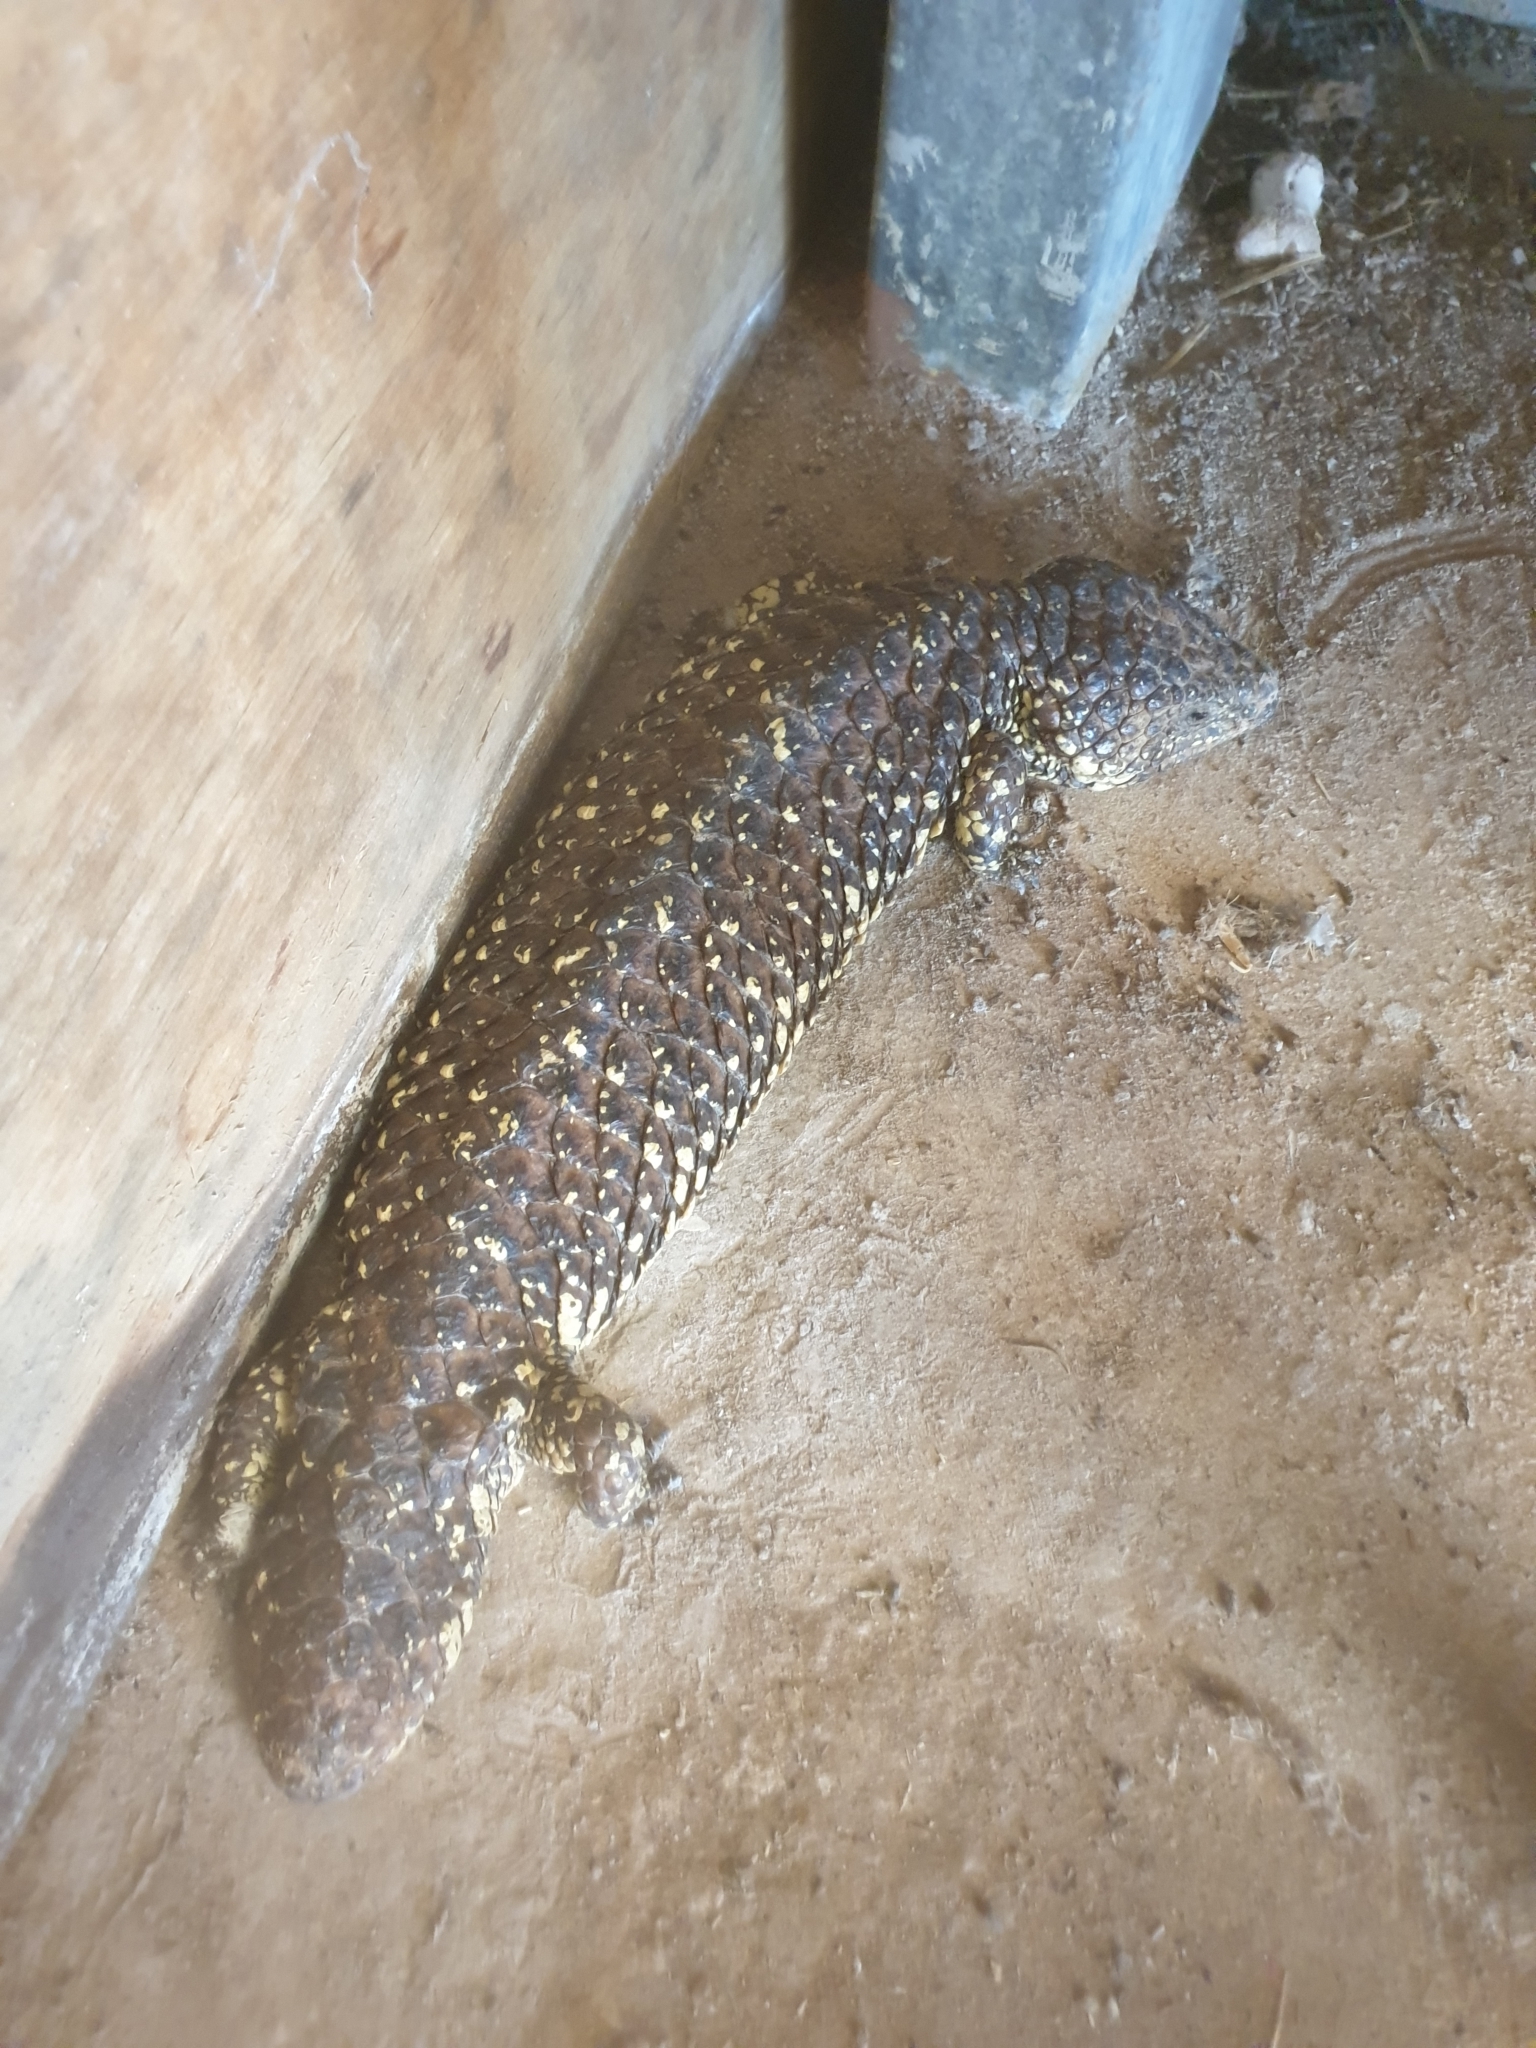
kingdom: Animalia
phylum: Chordata
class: Squamata
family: Scincidae
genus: Tiliqua
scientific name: Tiliqua rugosa
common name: Pinecone lizard
